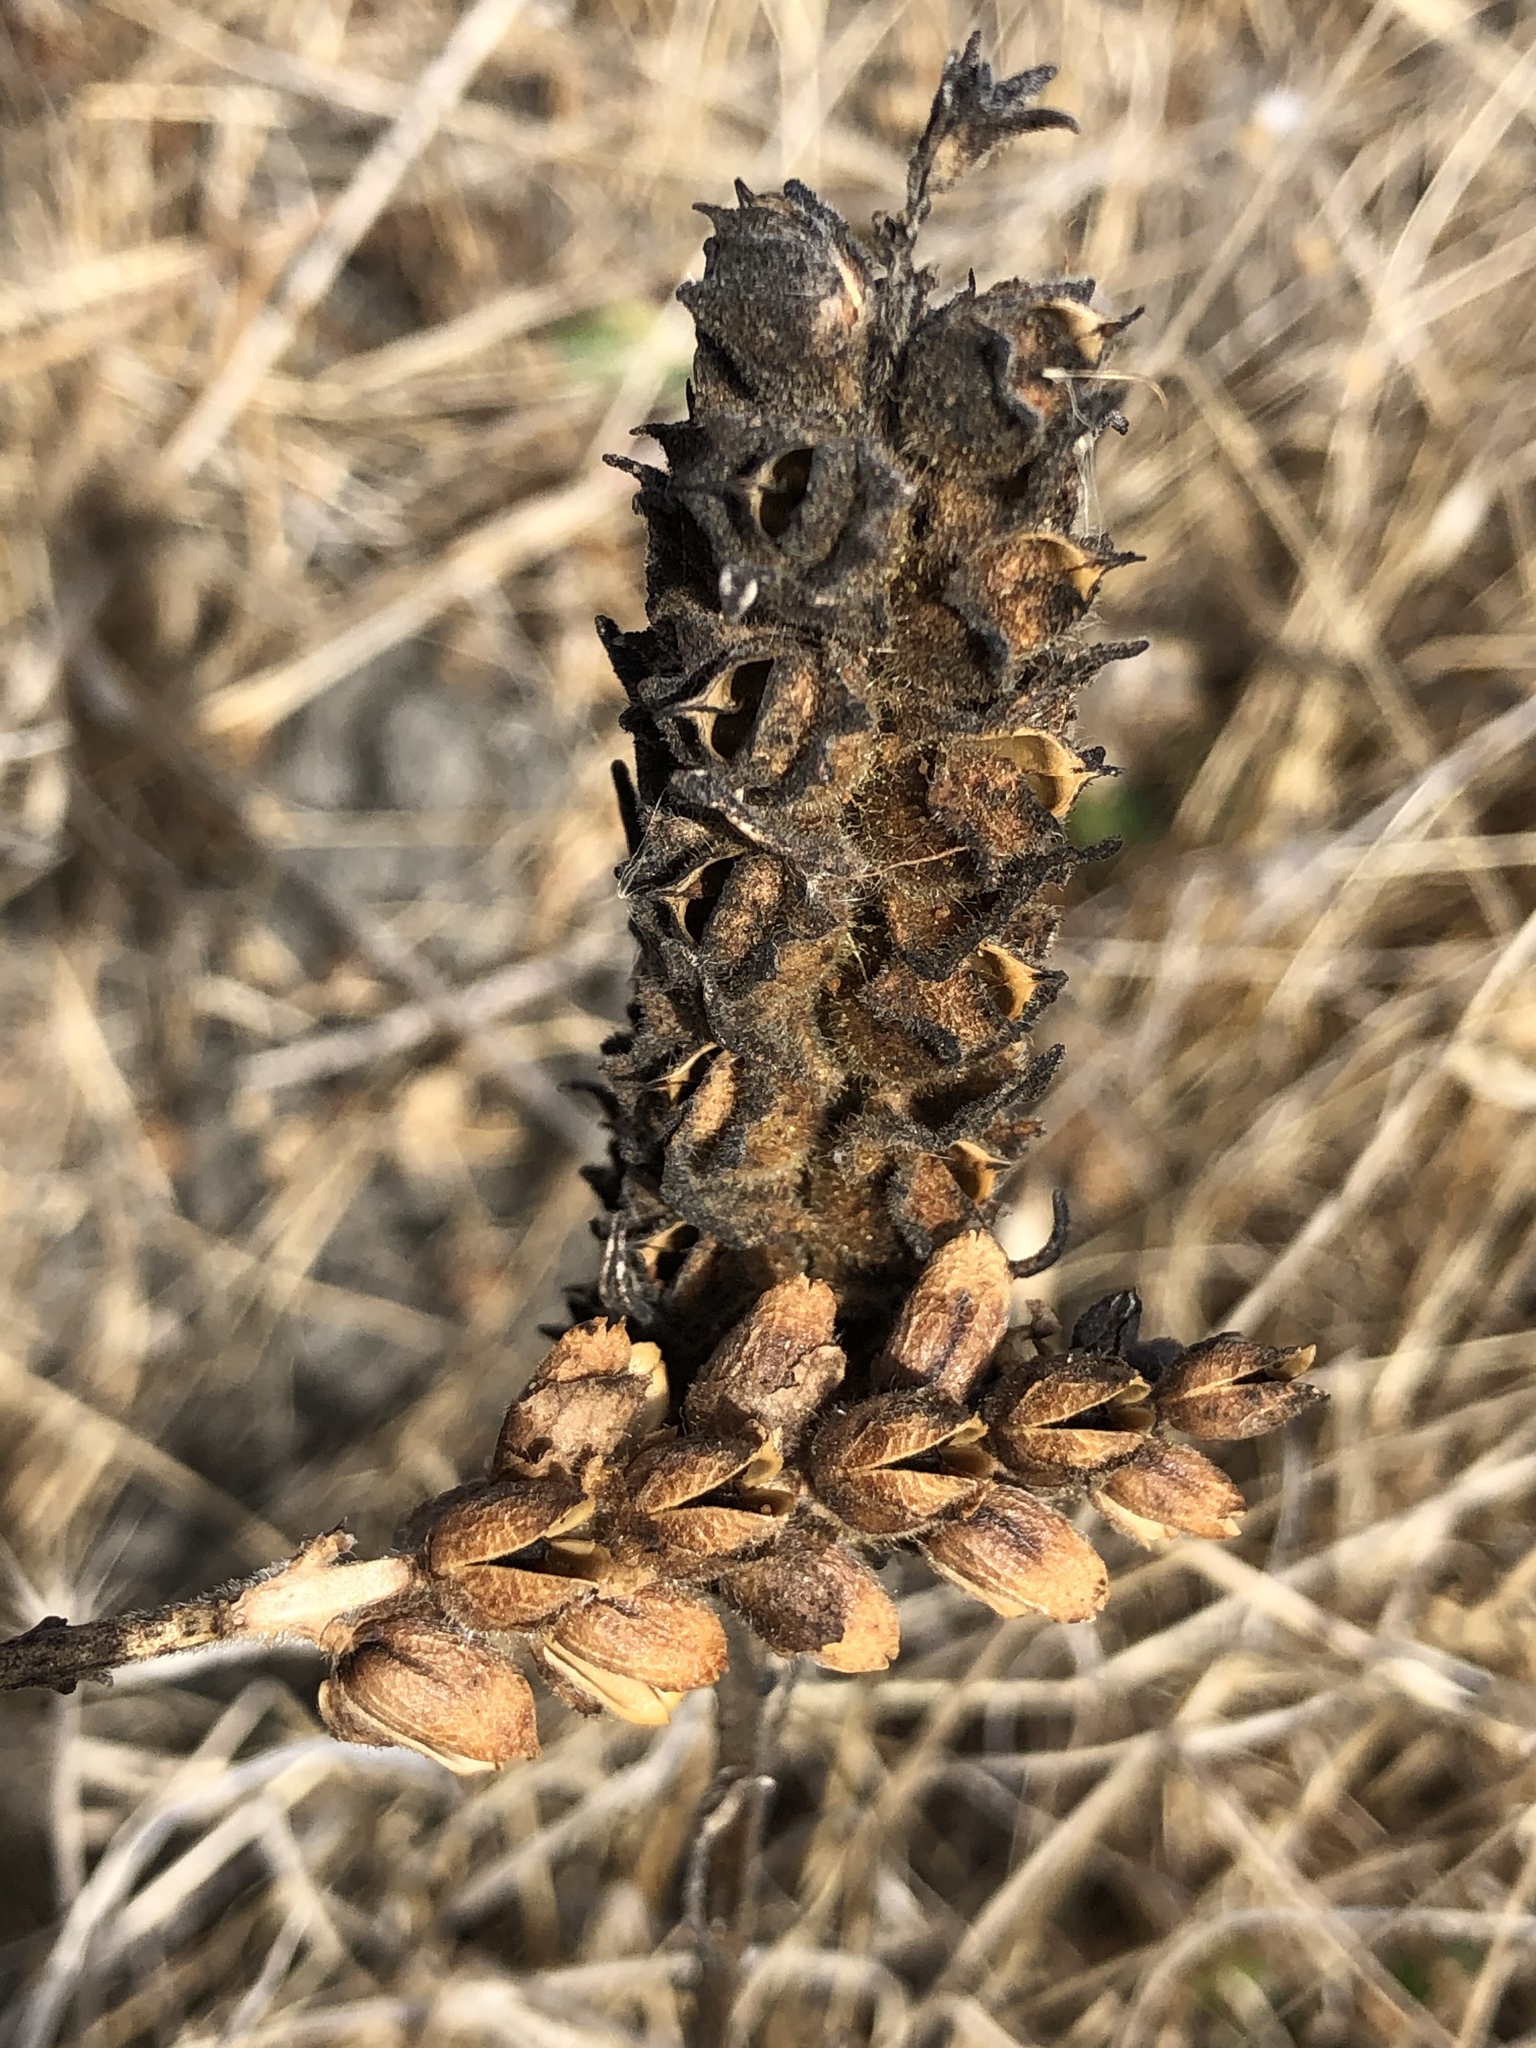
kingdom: Plantae
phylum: Tracheophyta
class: Magnoliopsida
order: Lamiales
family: Orobanchaceae
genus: Bellardia
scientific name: Bellardia trixago
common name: Mediterranean lineseed
